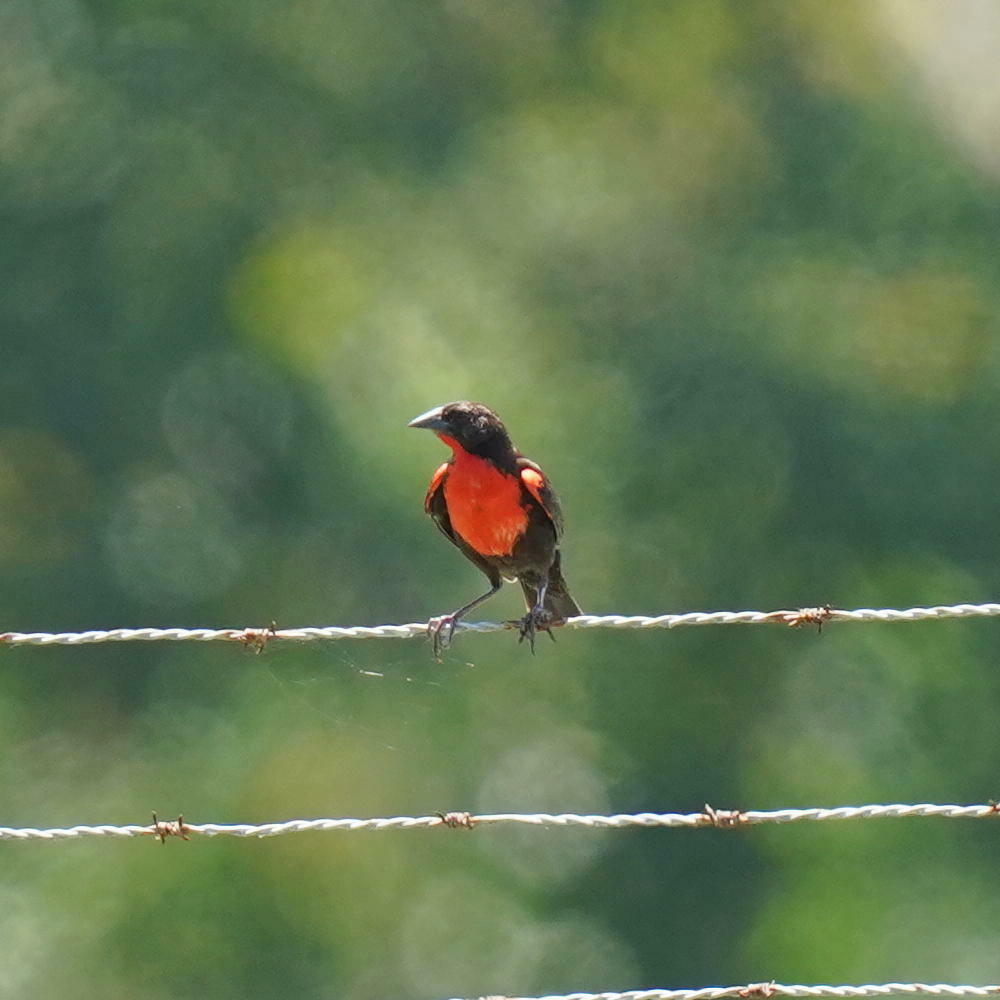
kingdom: Animalia
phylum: Chordata
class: Aves
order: Passeriformes
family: Icteridae
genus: Sturnella
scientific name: Sturnella militaris
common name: Red-breasted blackbird
